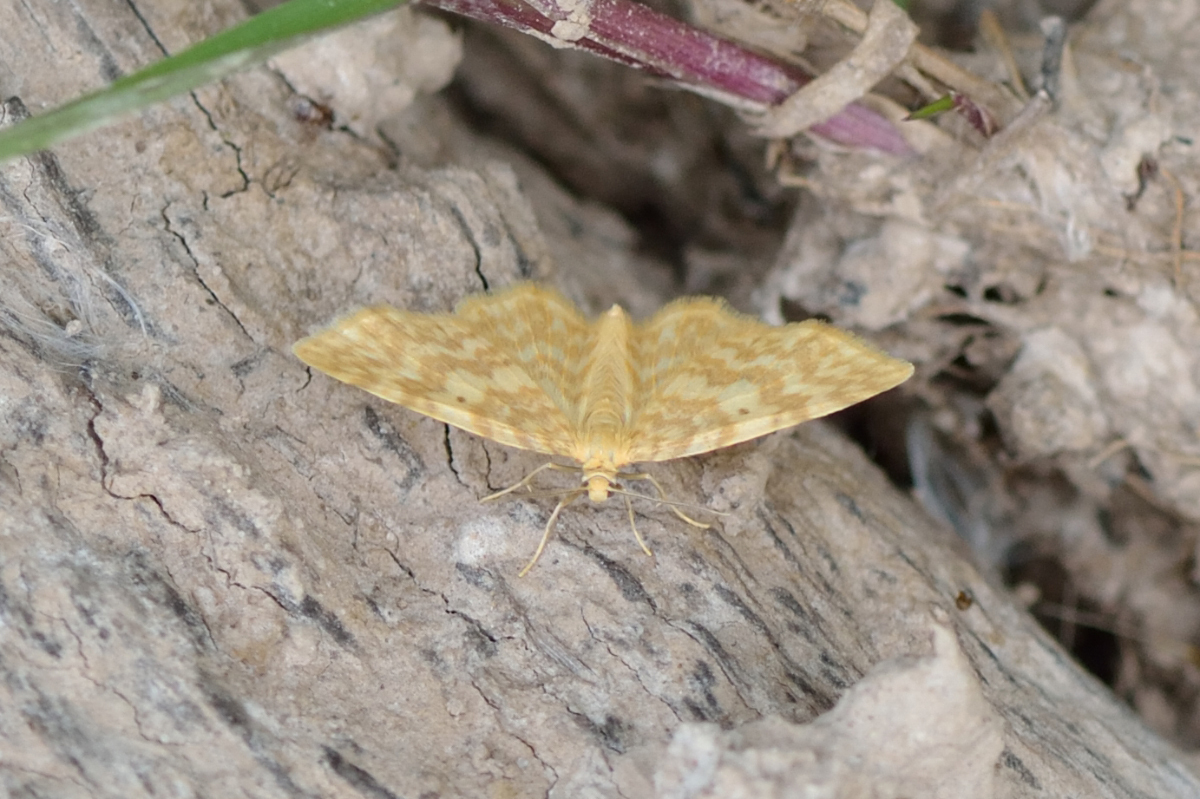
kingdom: Animalia
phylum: Arthropoda
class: Insecta
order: Lepidoptera
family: Geometridae
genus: Hydrelia
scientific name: Hydrelia flammeolaria
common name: Small yellow wave
